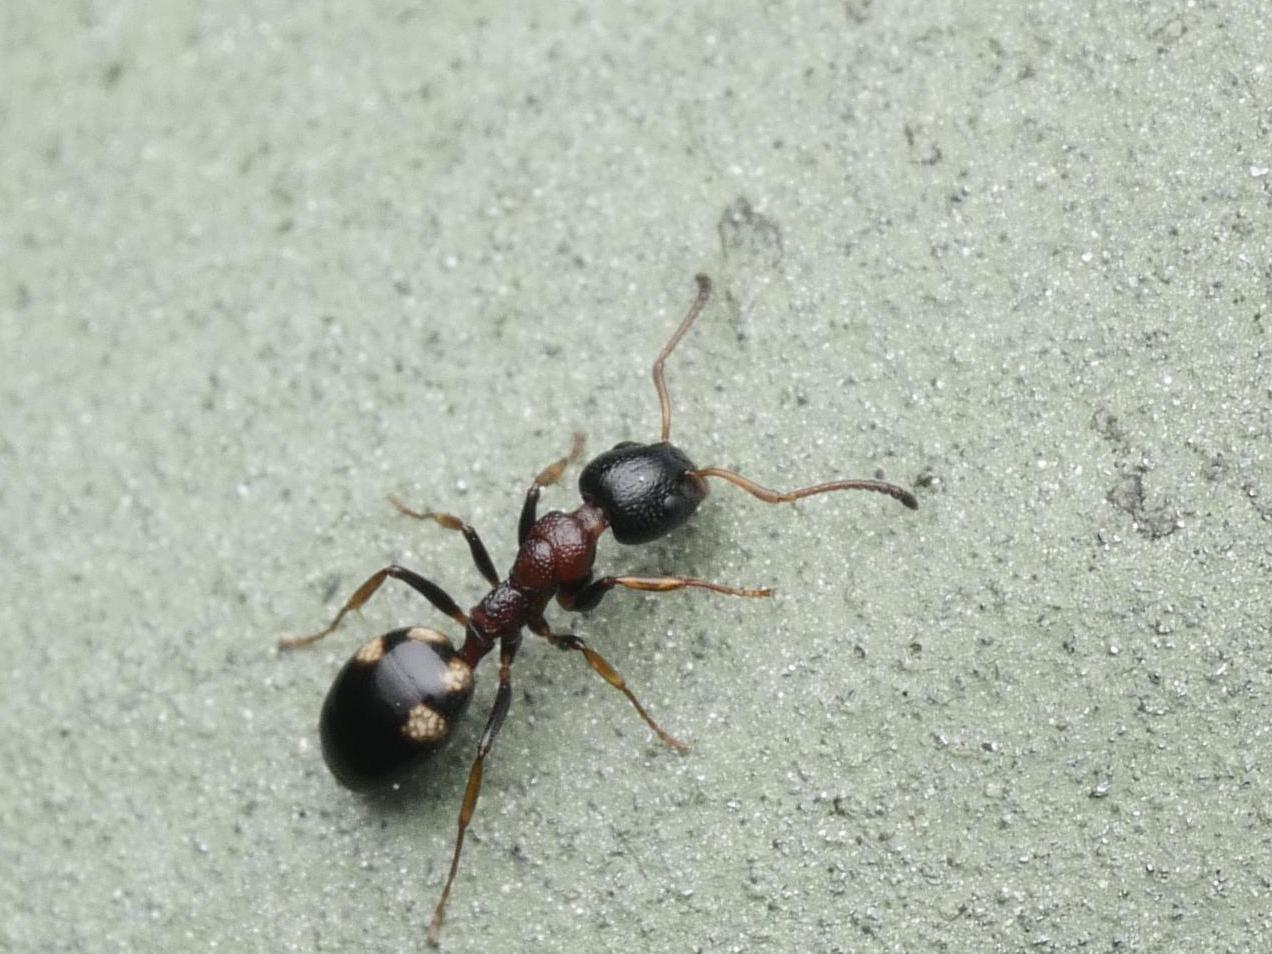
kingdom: Animalia
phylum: Arthropoda
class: Insecta
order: Hymenoptera
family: Formicidae
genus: Dolichoderus
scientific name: Dolichoderus quadripunctatus
